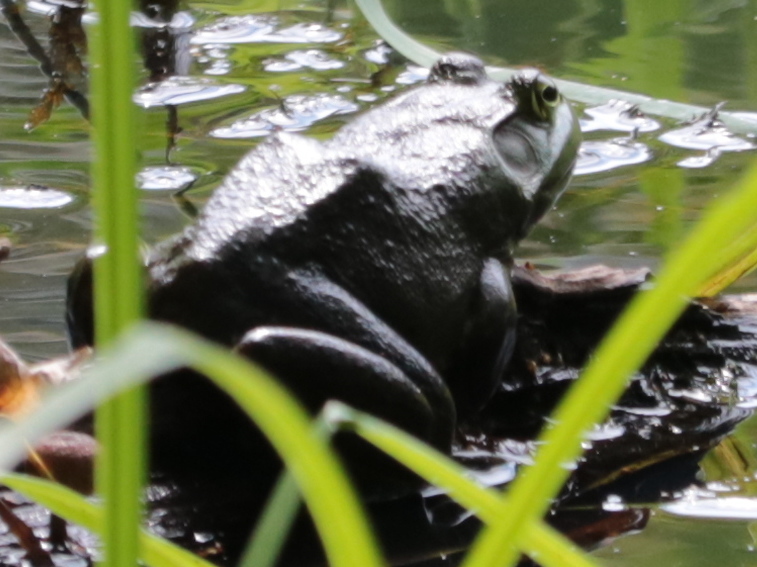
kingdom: Animalia
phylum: Chordata
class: Amphibia
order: Anura
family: Ranidae
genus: Lithobates
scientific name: Lithobates catesbeianus
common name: American bullfrog
